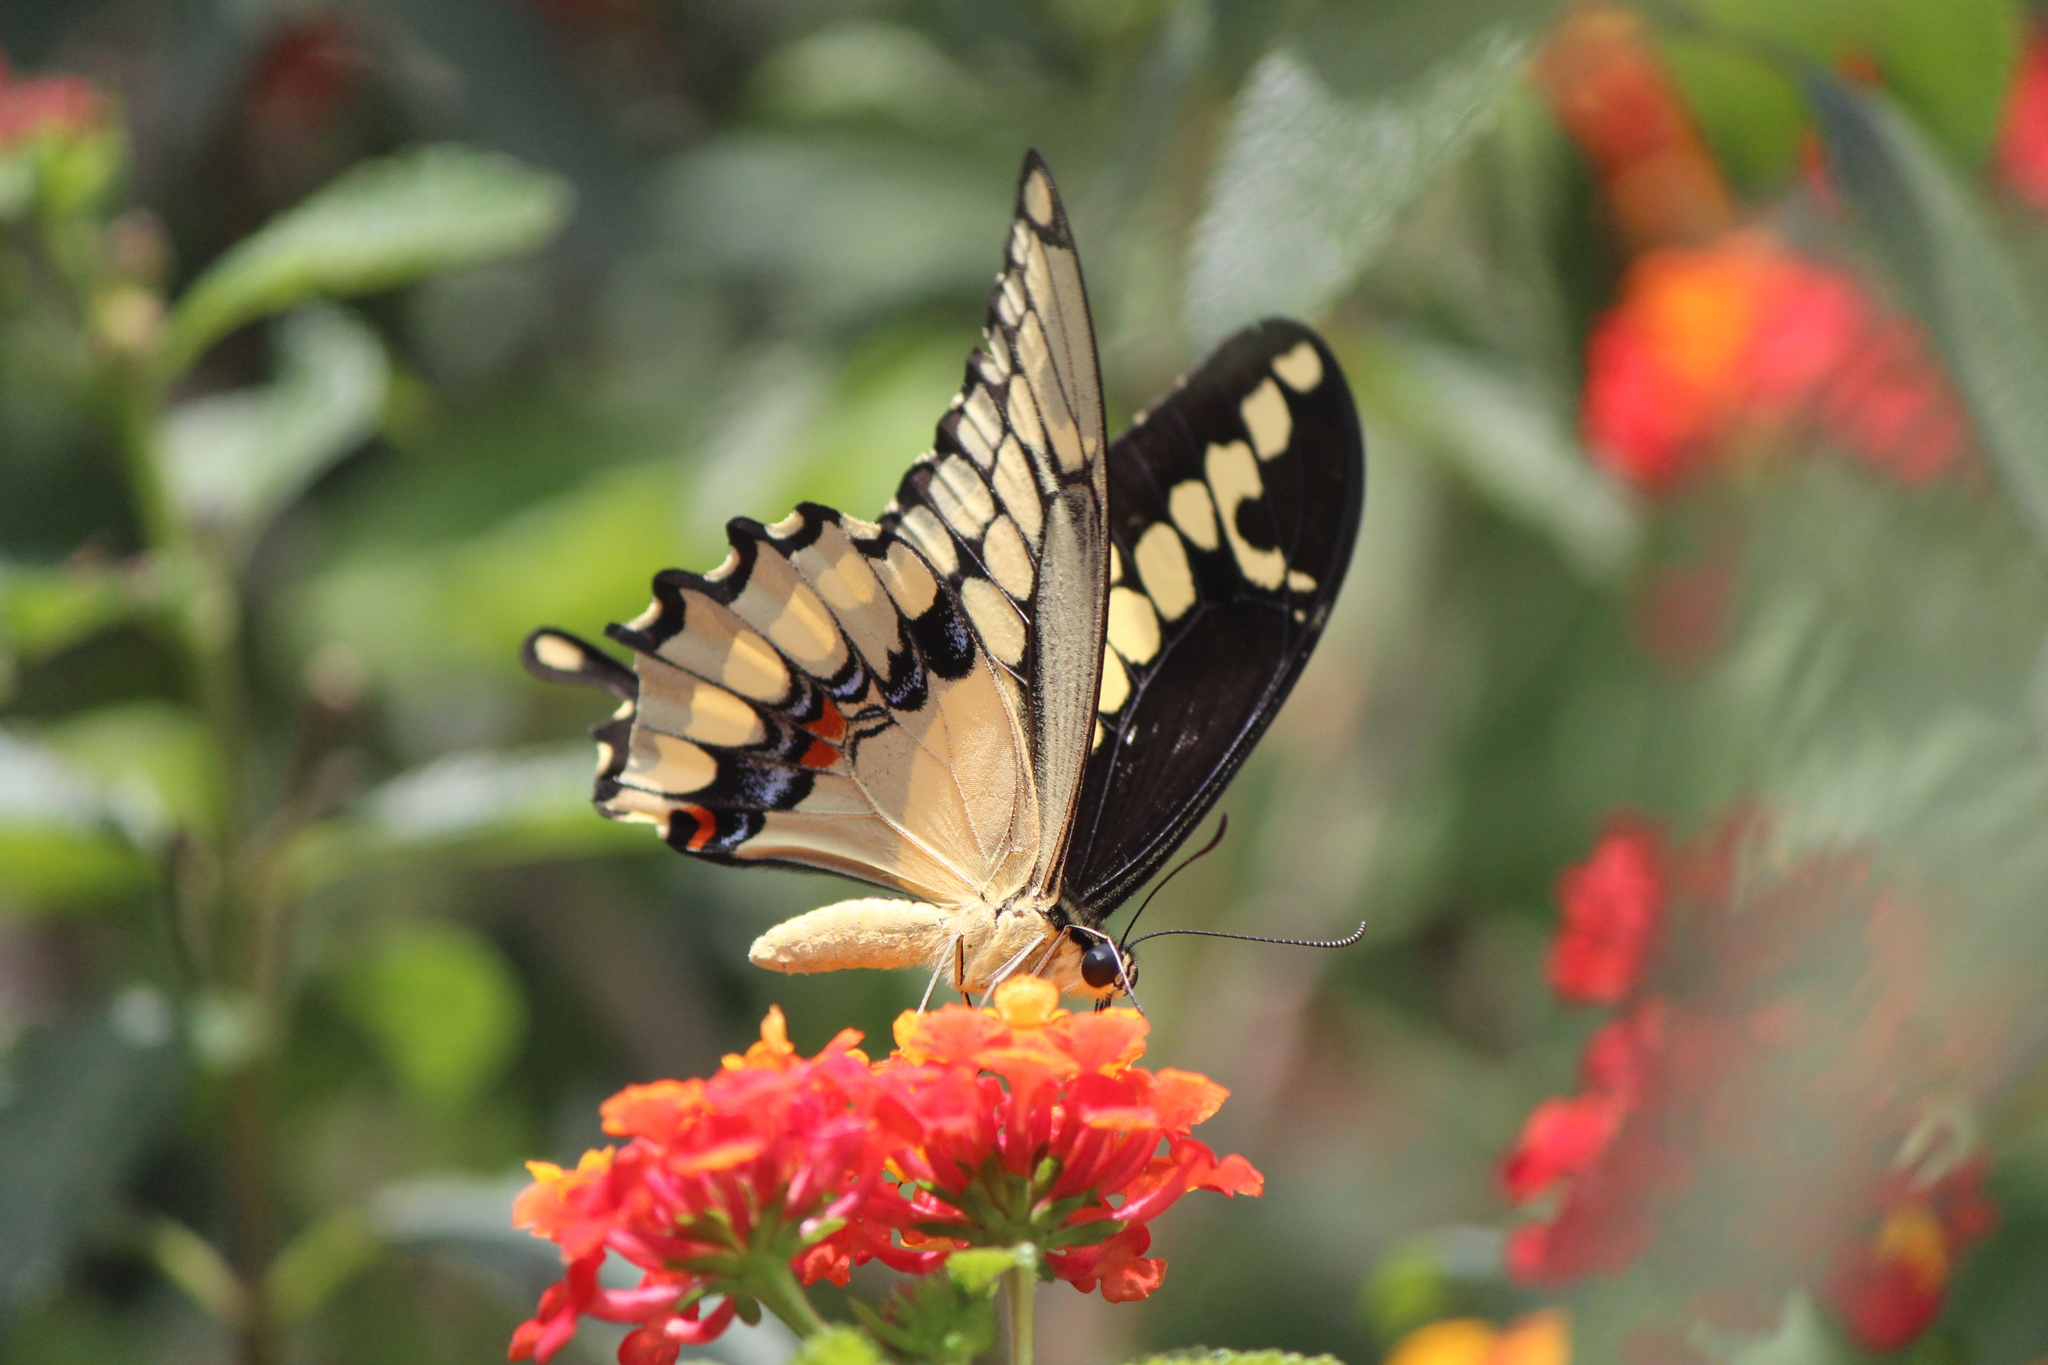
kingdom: Animalia
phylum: Arthropoda
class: Insecta
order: Lepidoptera
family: Papilionidae
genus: Papilio
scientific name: Papilio rumiko
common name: Western giant swallowtail
